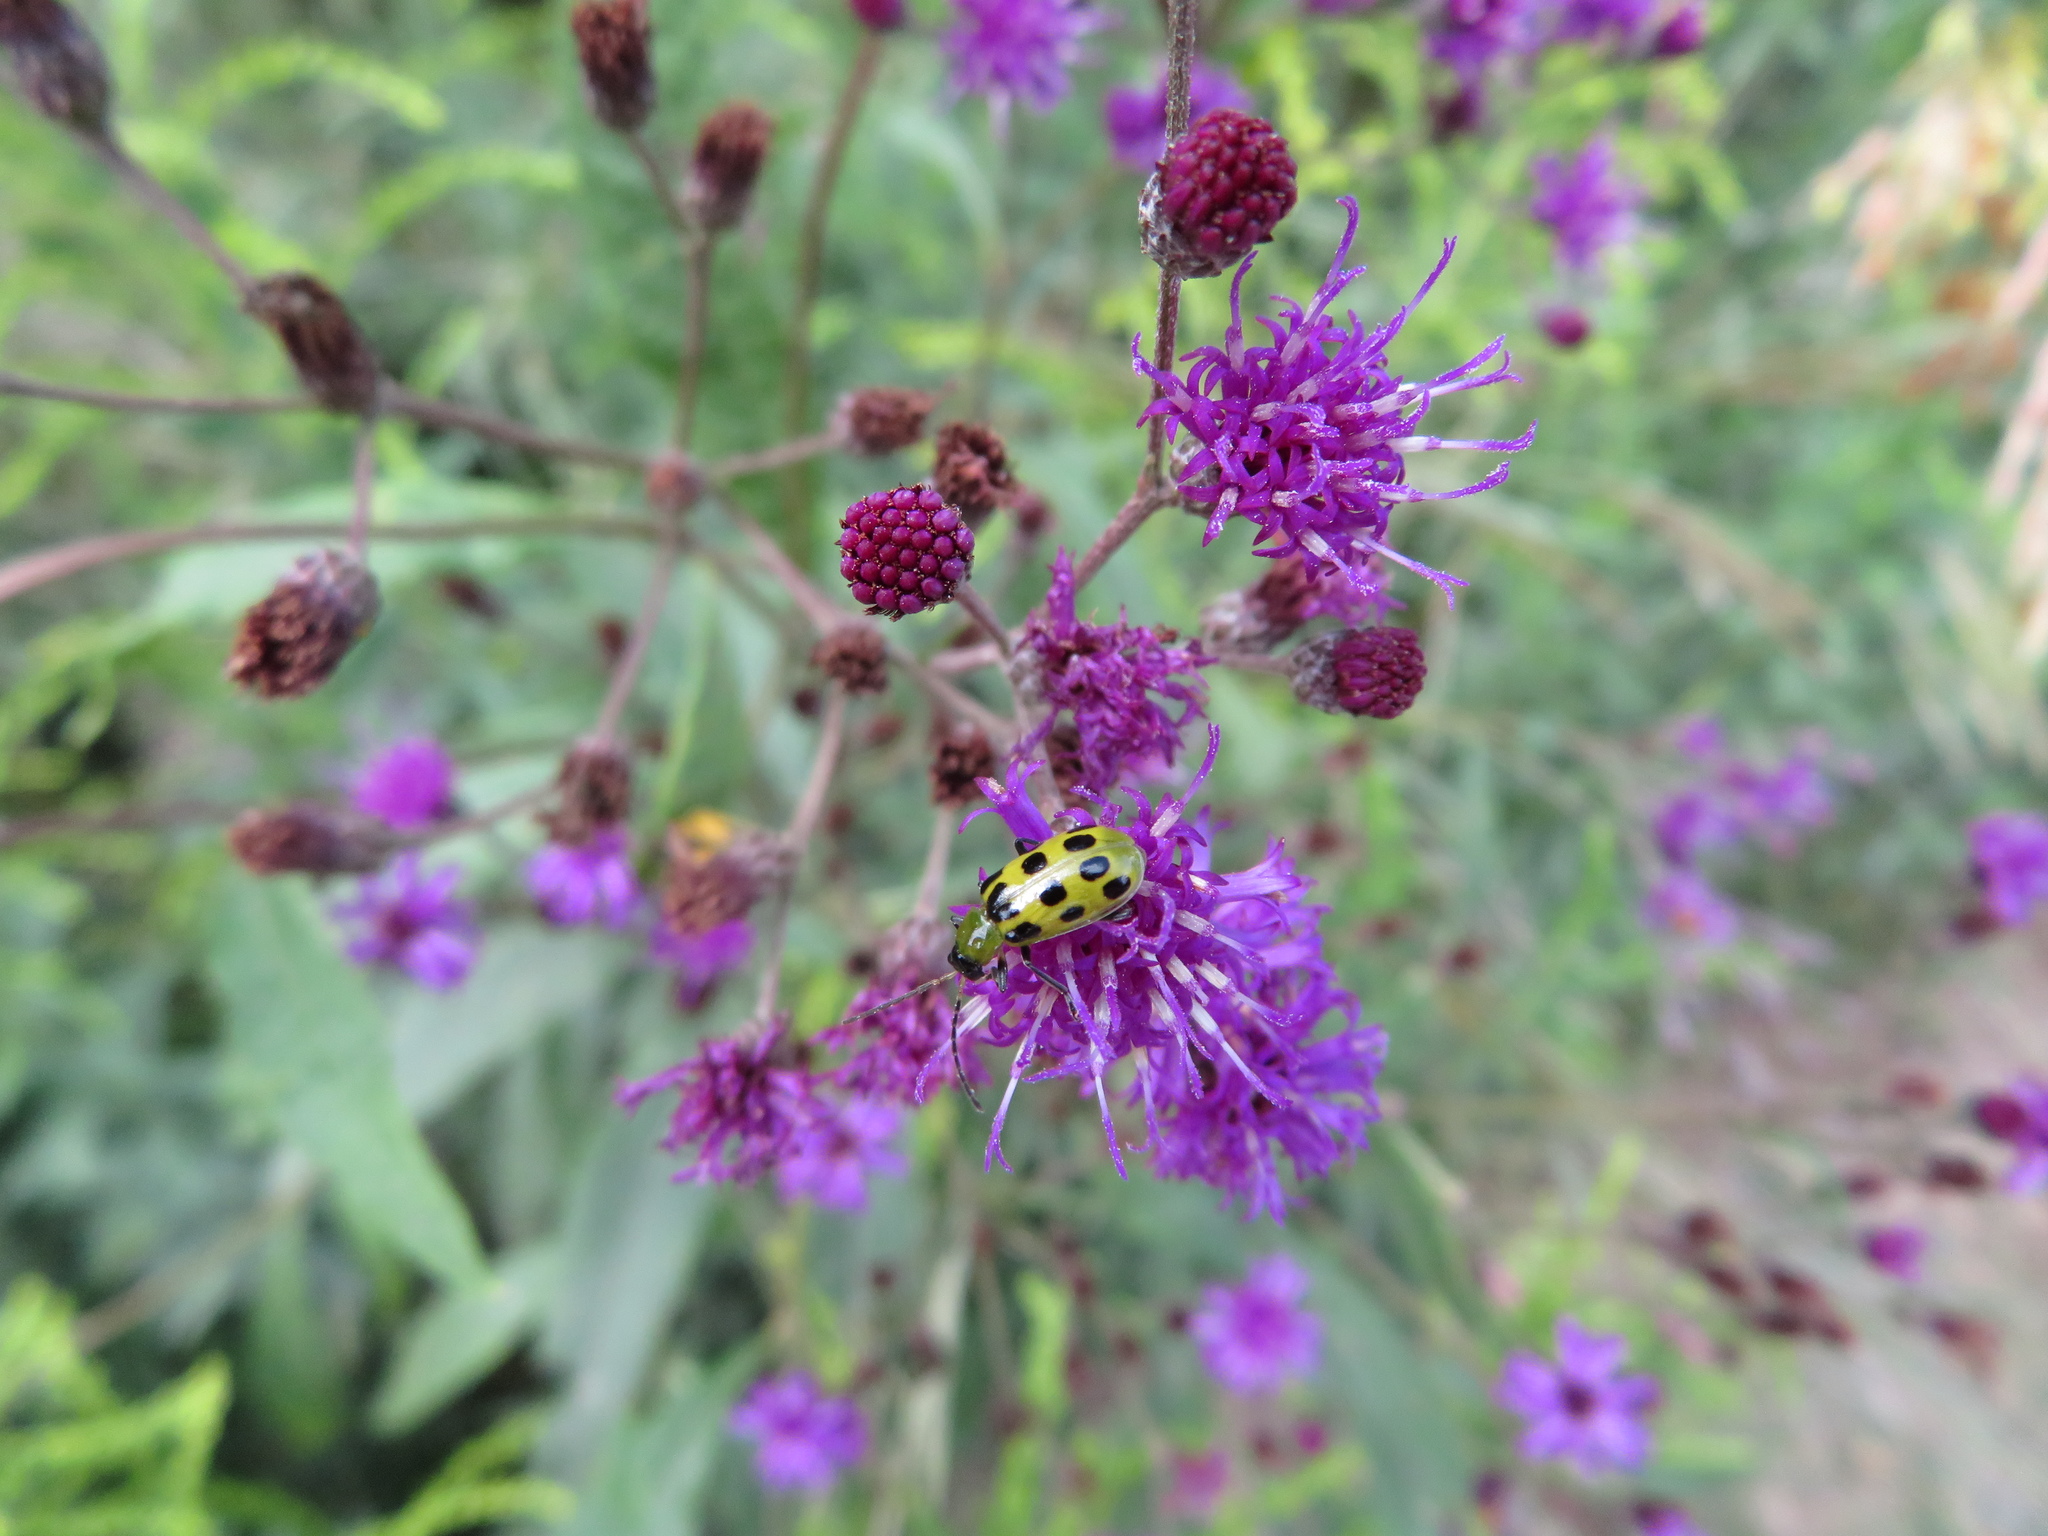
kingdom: Animalia
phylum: Arthropoda
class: Insecta
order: Coleoptera
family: Chrysomelidae
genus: Diabrotica
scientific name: Diabrotica undecimpunctata
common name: Spotted cucumber beetle
